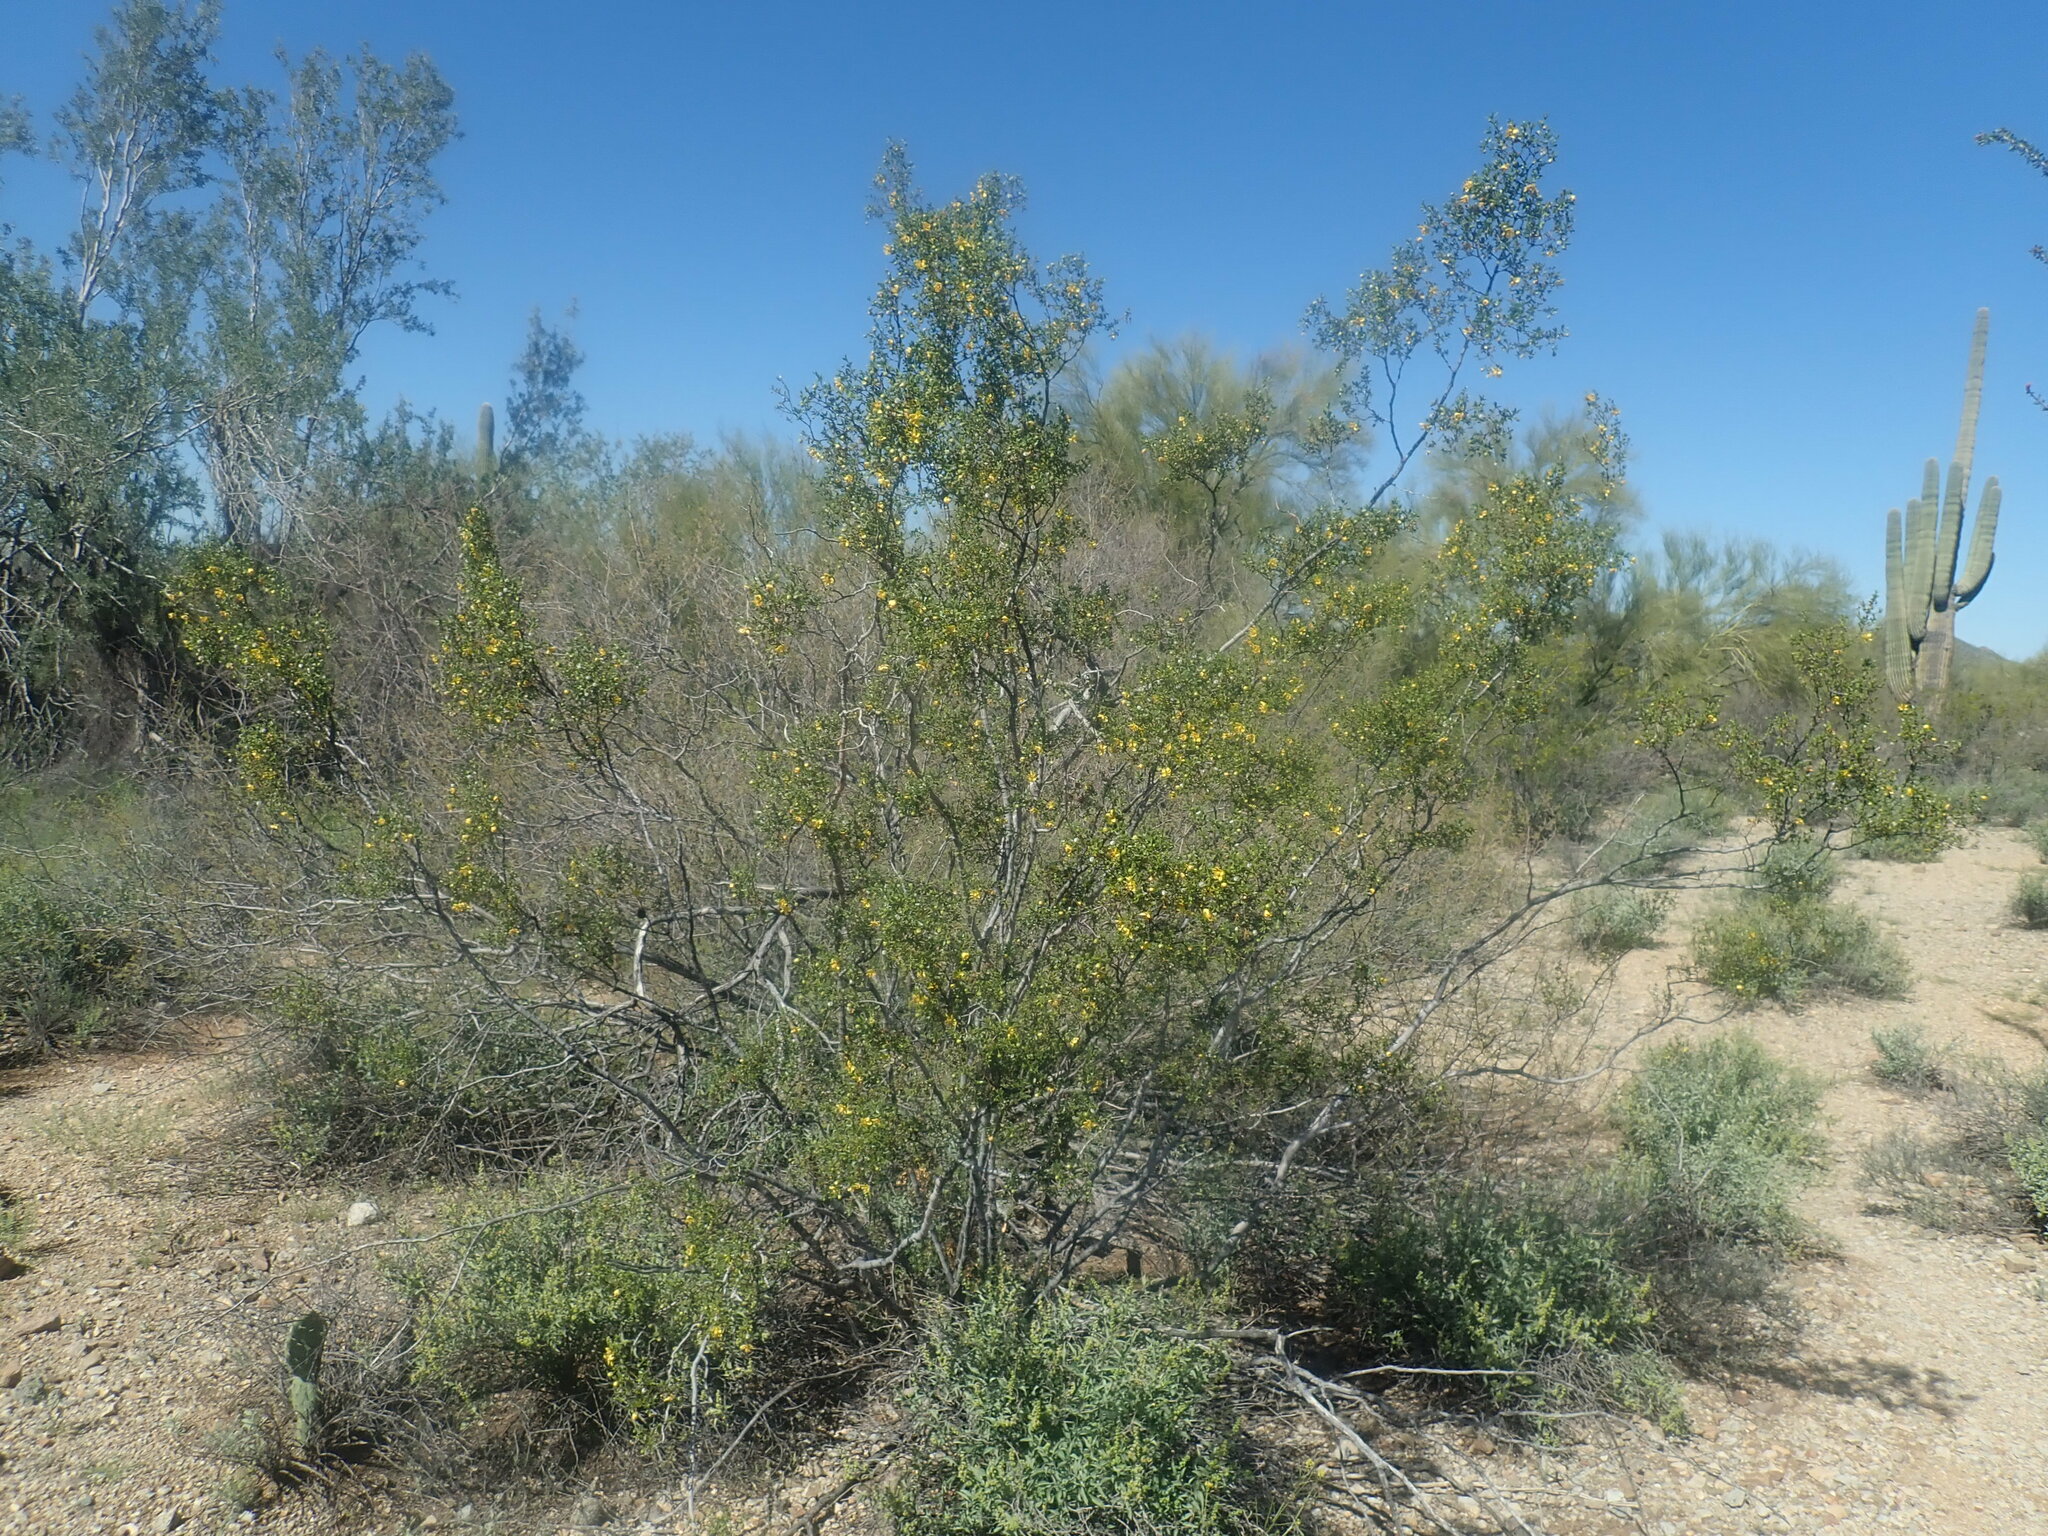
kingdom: Plantae
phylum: Tracheophyta
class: Magnoliopsida
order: Zygophyllales
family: Zygophyllaceae
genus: Larrea
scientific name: Larrea tridentata
